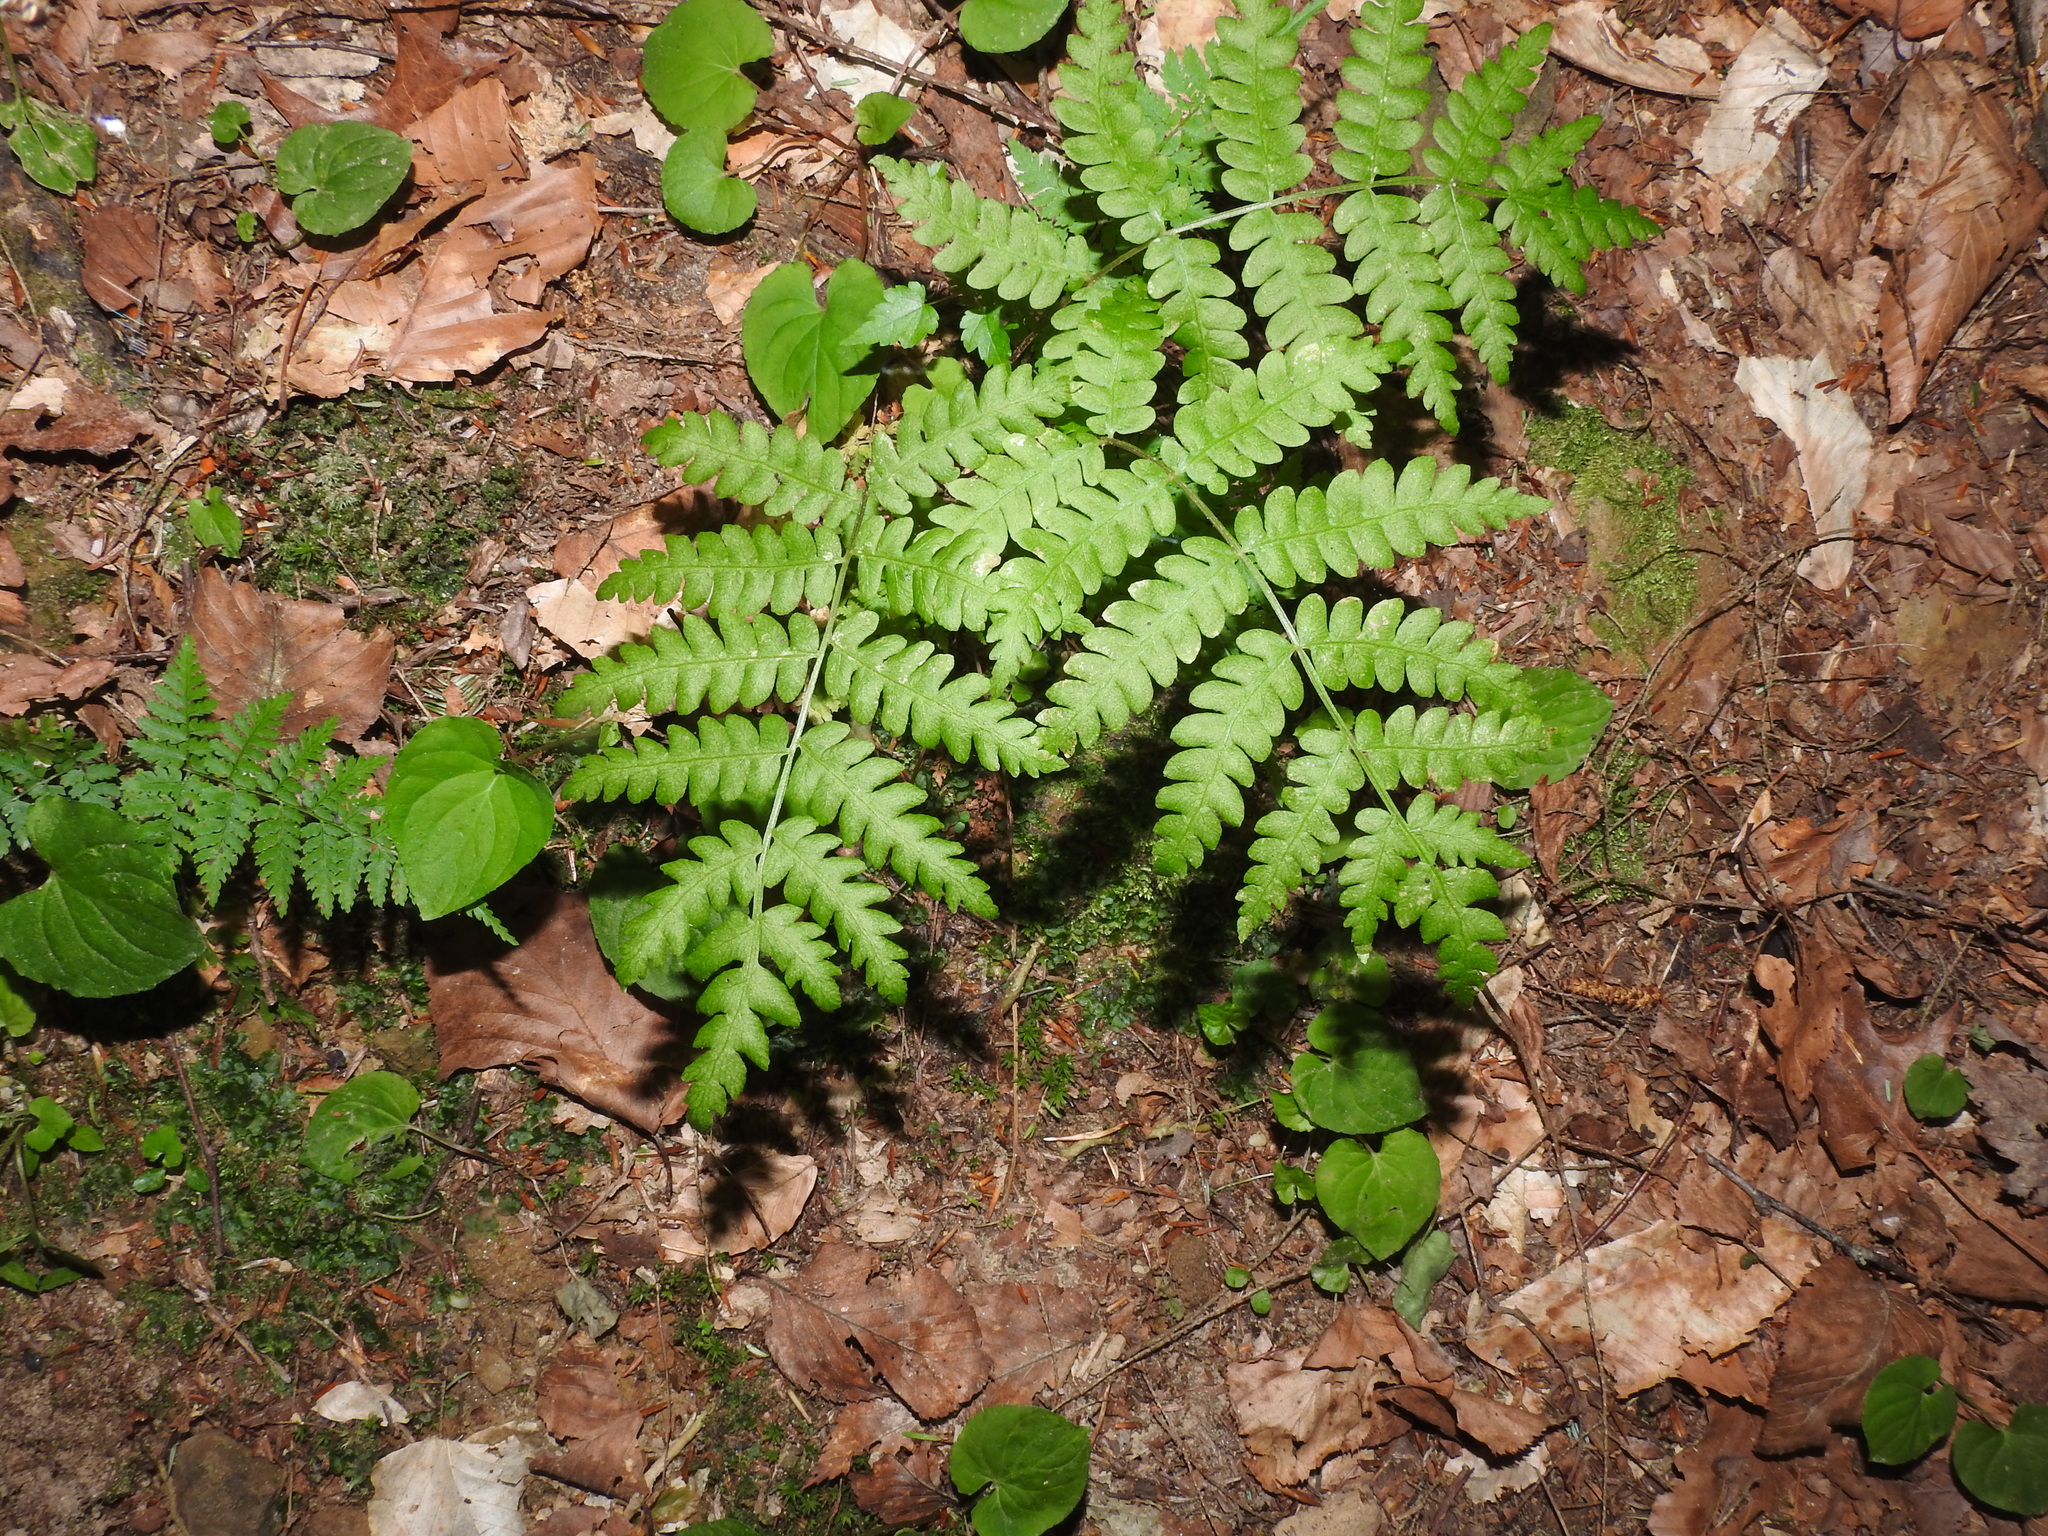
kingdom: Plantae
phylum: Tracheophyta
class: Polypodiopsida
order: Osmundales
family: Osmundaceae
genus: Osmundastrum
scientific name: Osmundastrum cinnamomeum
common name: Cinnamon fern
